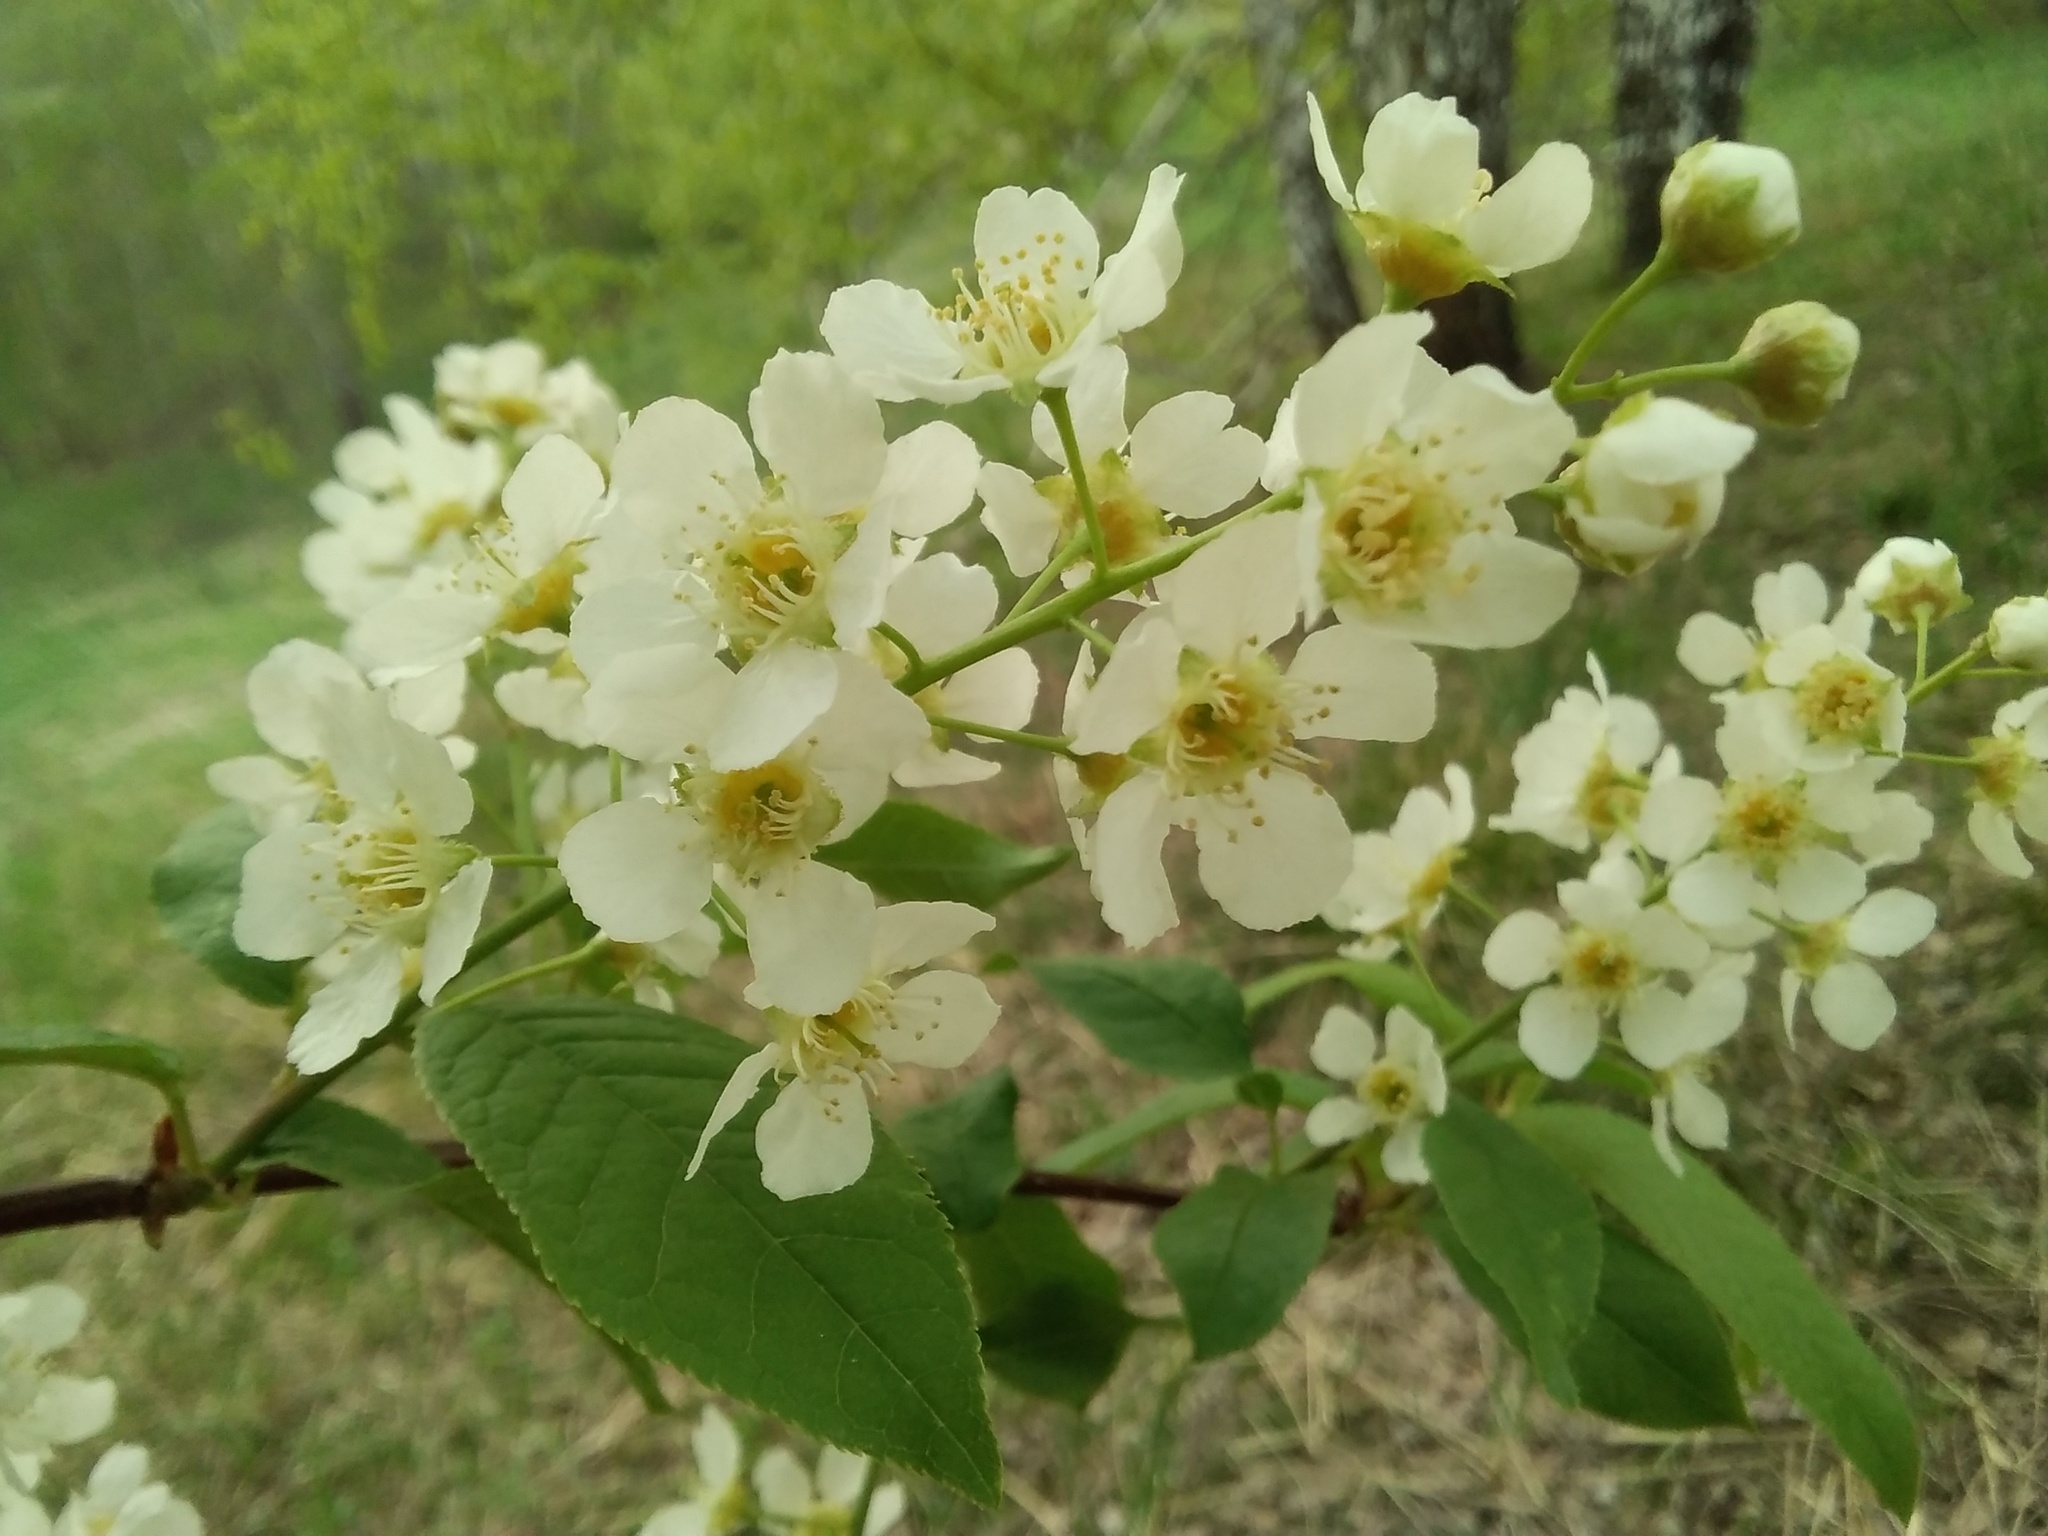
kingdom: Plantae
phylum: Tracheophyta
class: Magnoliopsida
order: Rosales
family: Rosaceae
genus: Prunus
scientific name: Prunus padus
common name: Bird cherry
